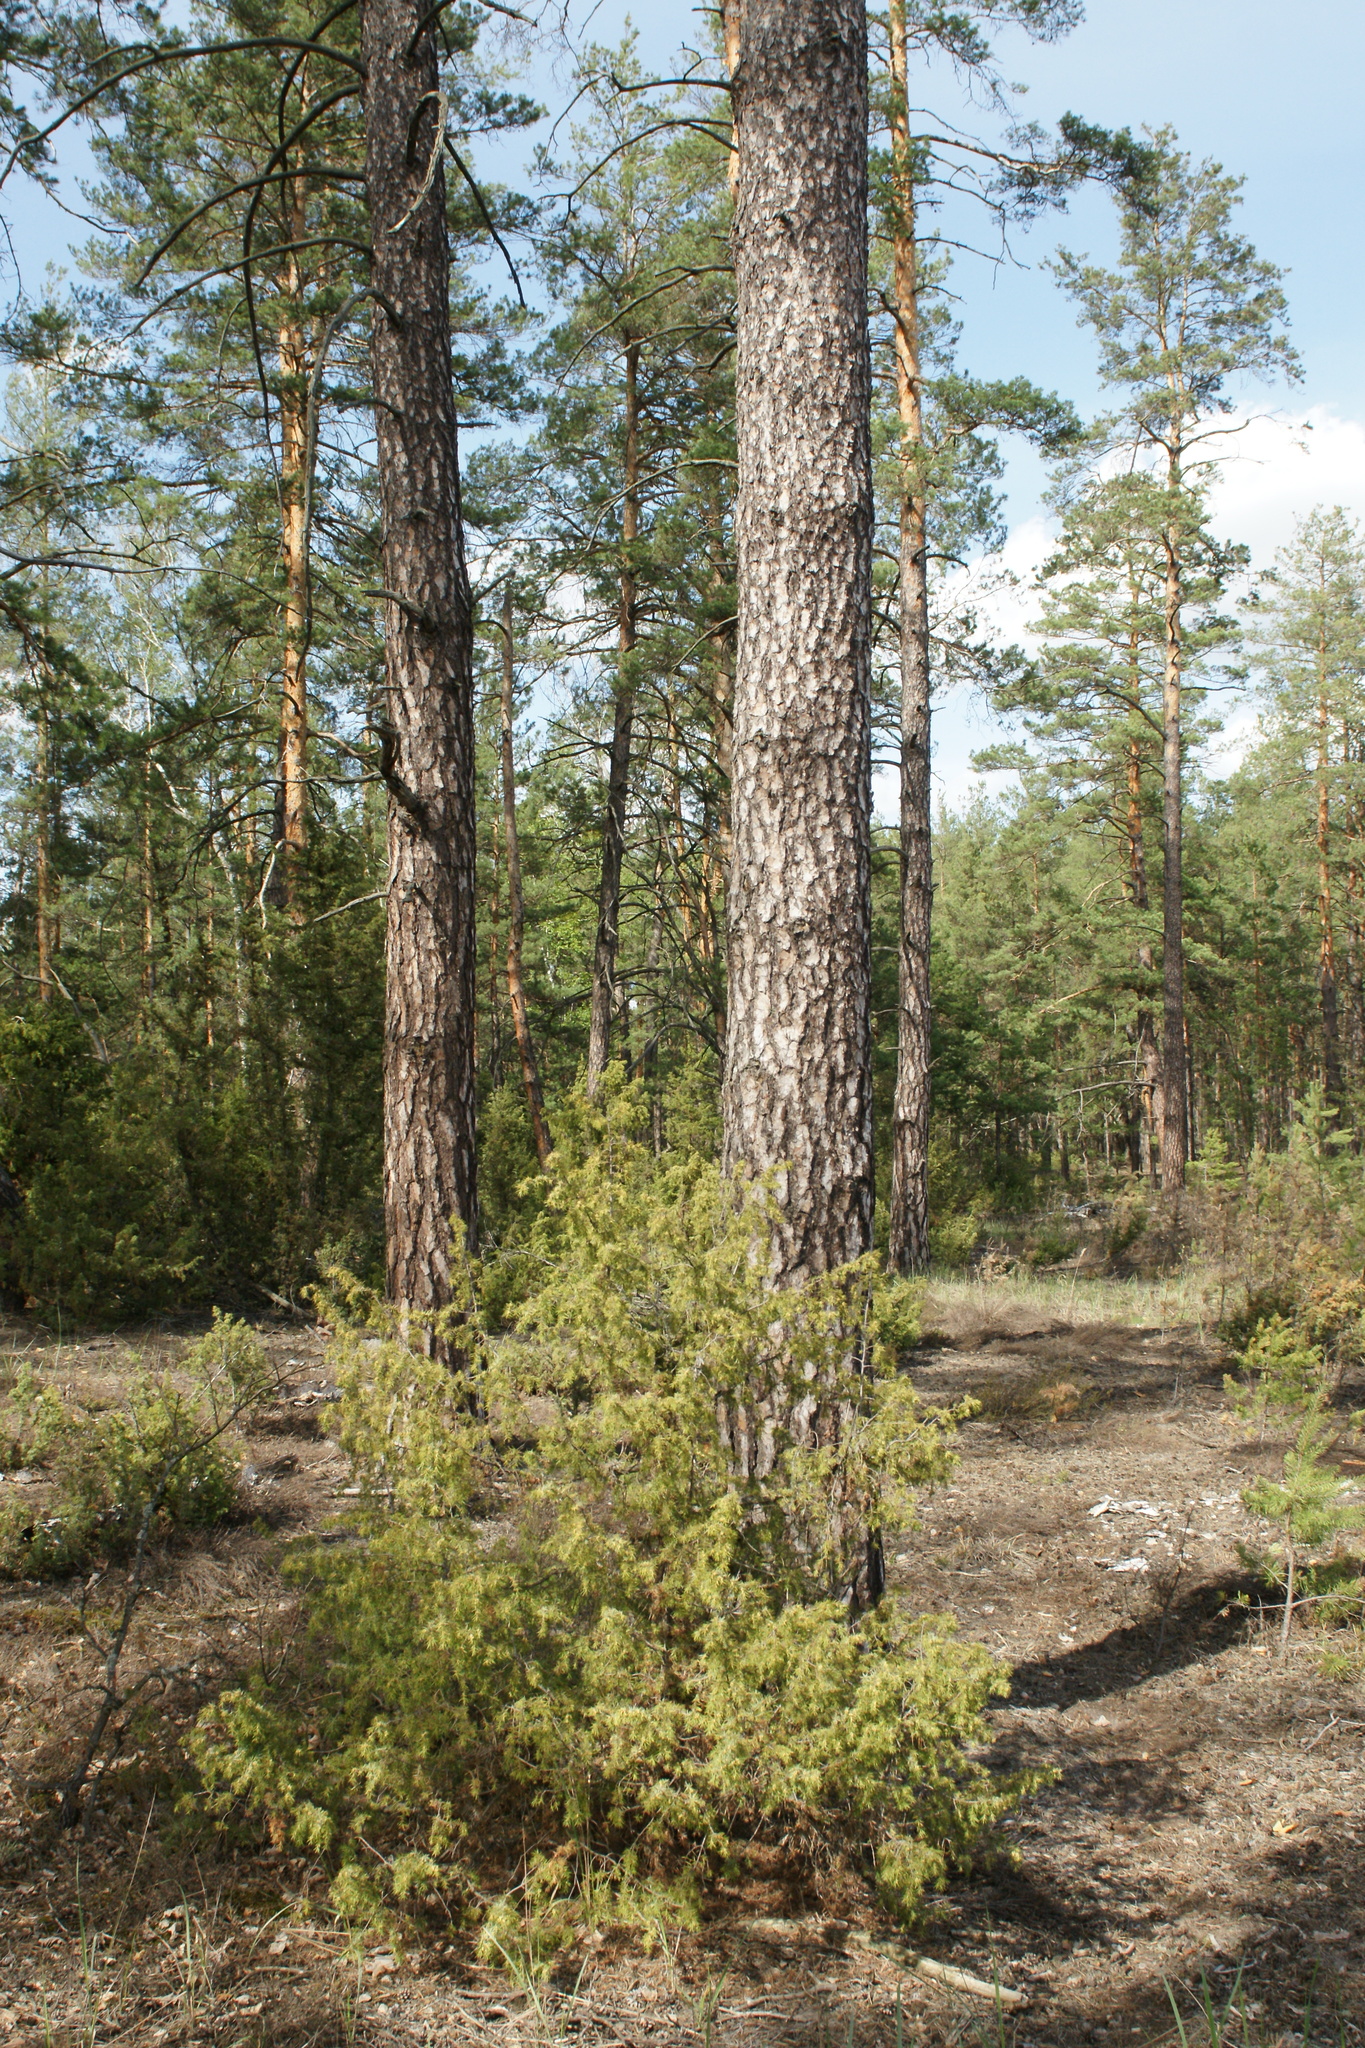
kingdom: Plantae
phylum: Tracheophyta
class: Pinopsida
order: Pinales
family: Cupressaceae
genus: Juniperus
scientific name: Juniperus communis
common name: Common juniper
